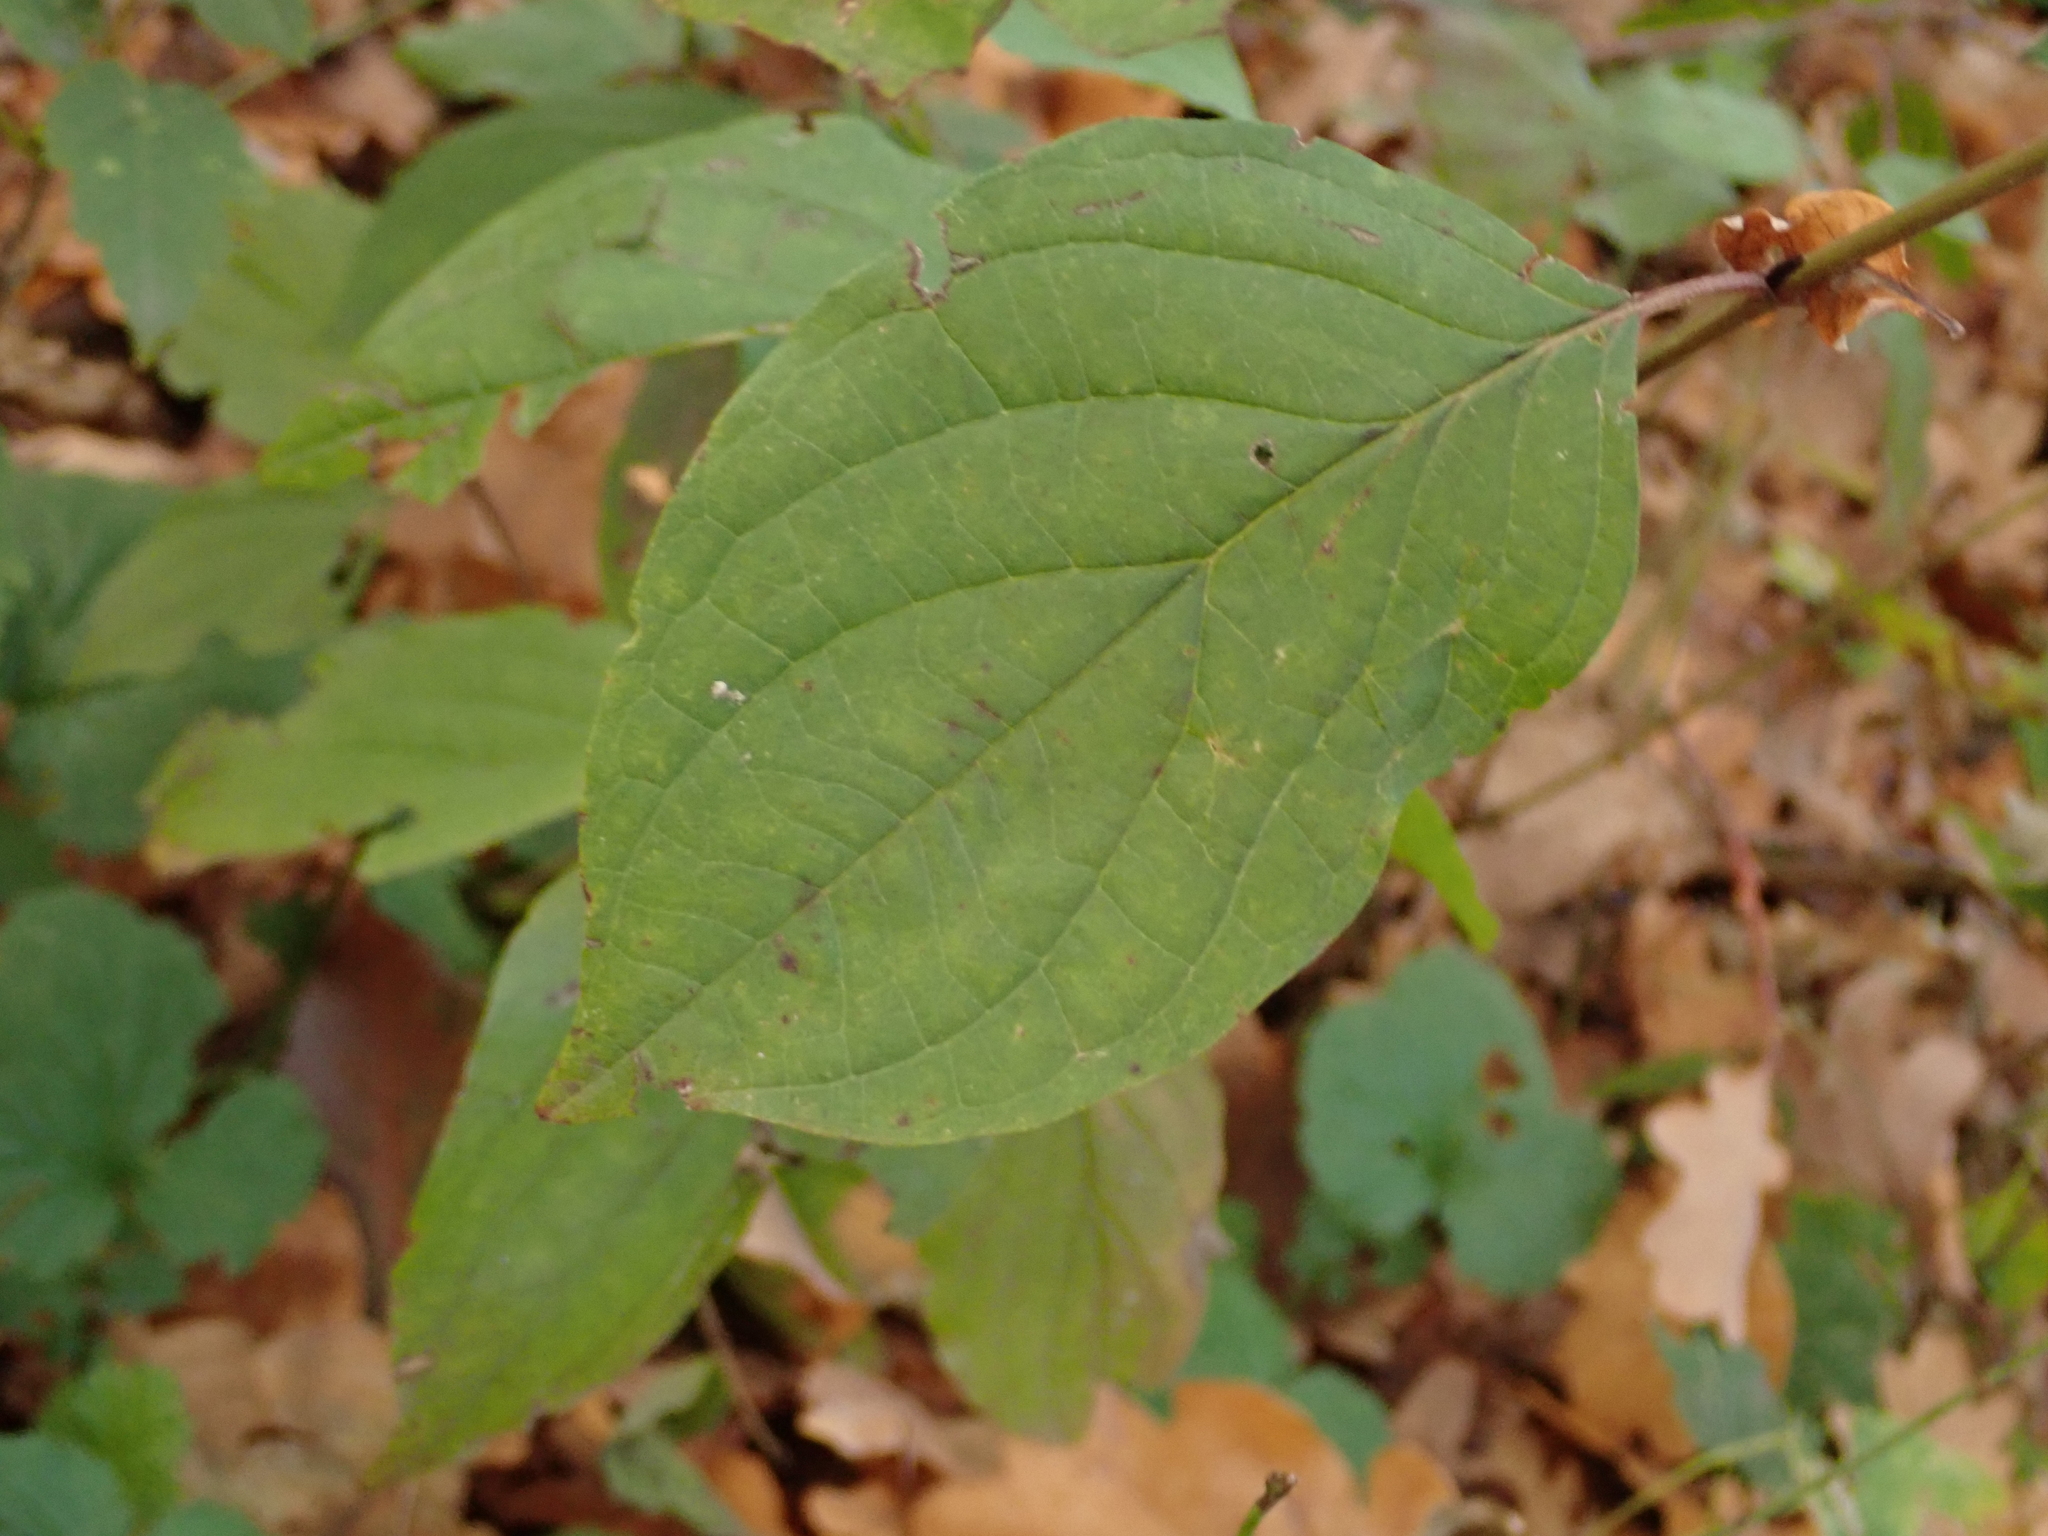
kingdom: Plantae
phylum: Tracheophyta
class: Magnoliopsida
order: Cornales
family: Cornaceae
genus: Cornus
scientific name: Cornus sanguinea
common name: Dogwood
